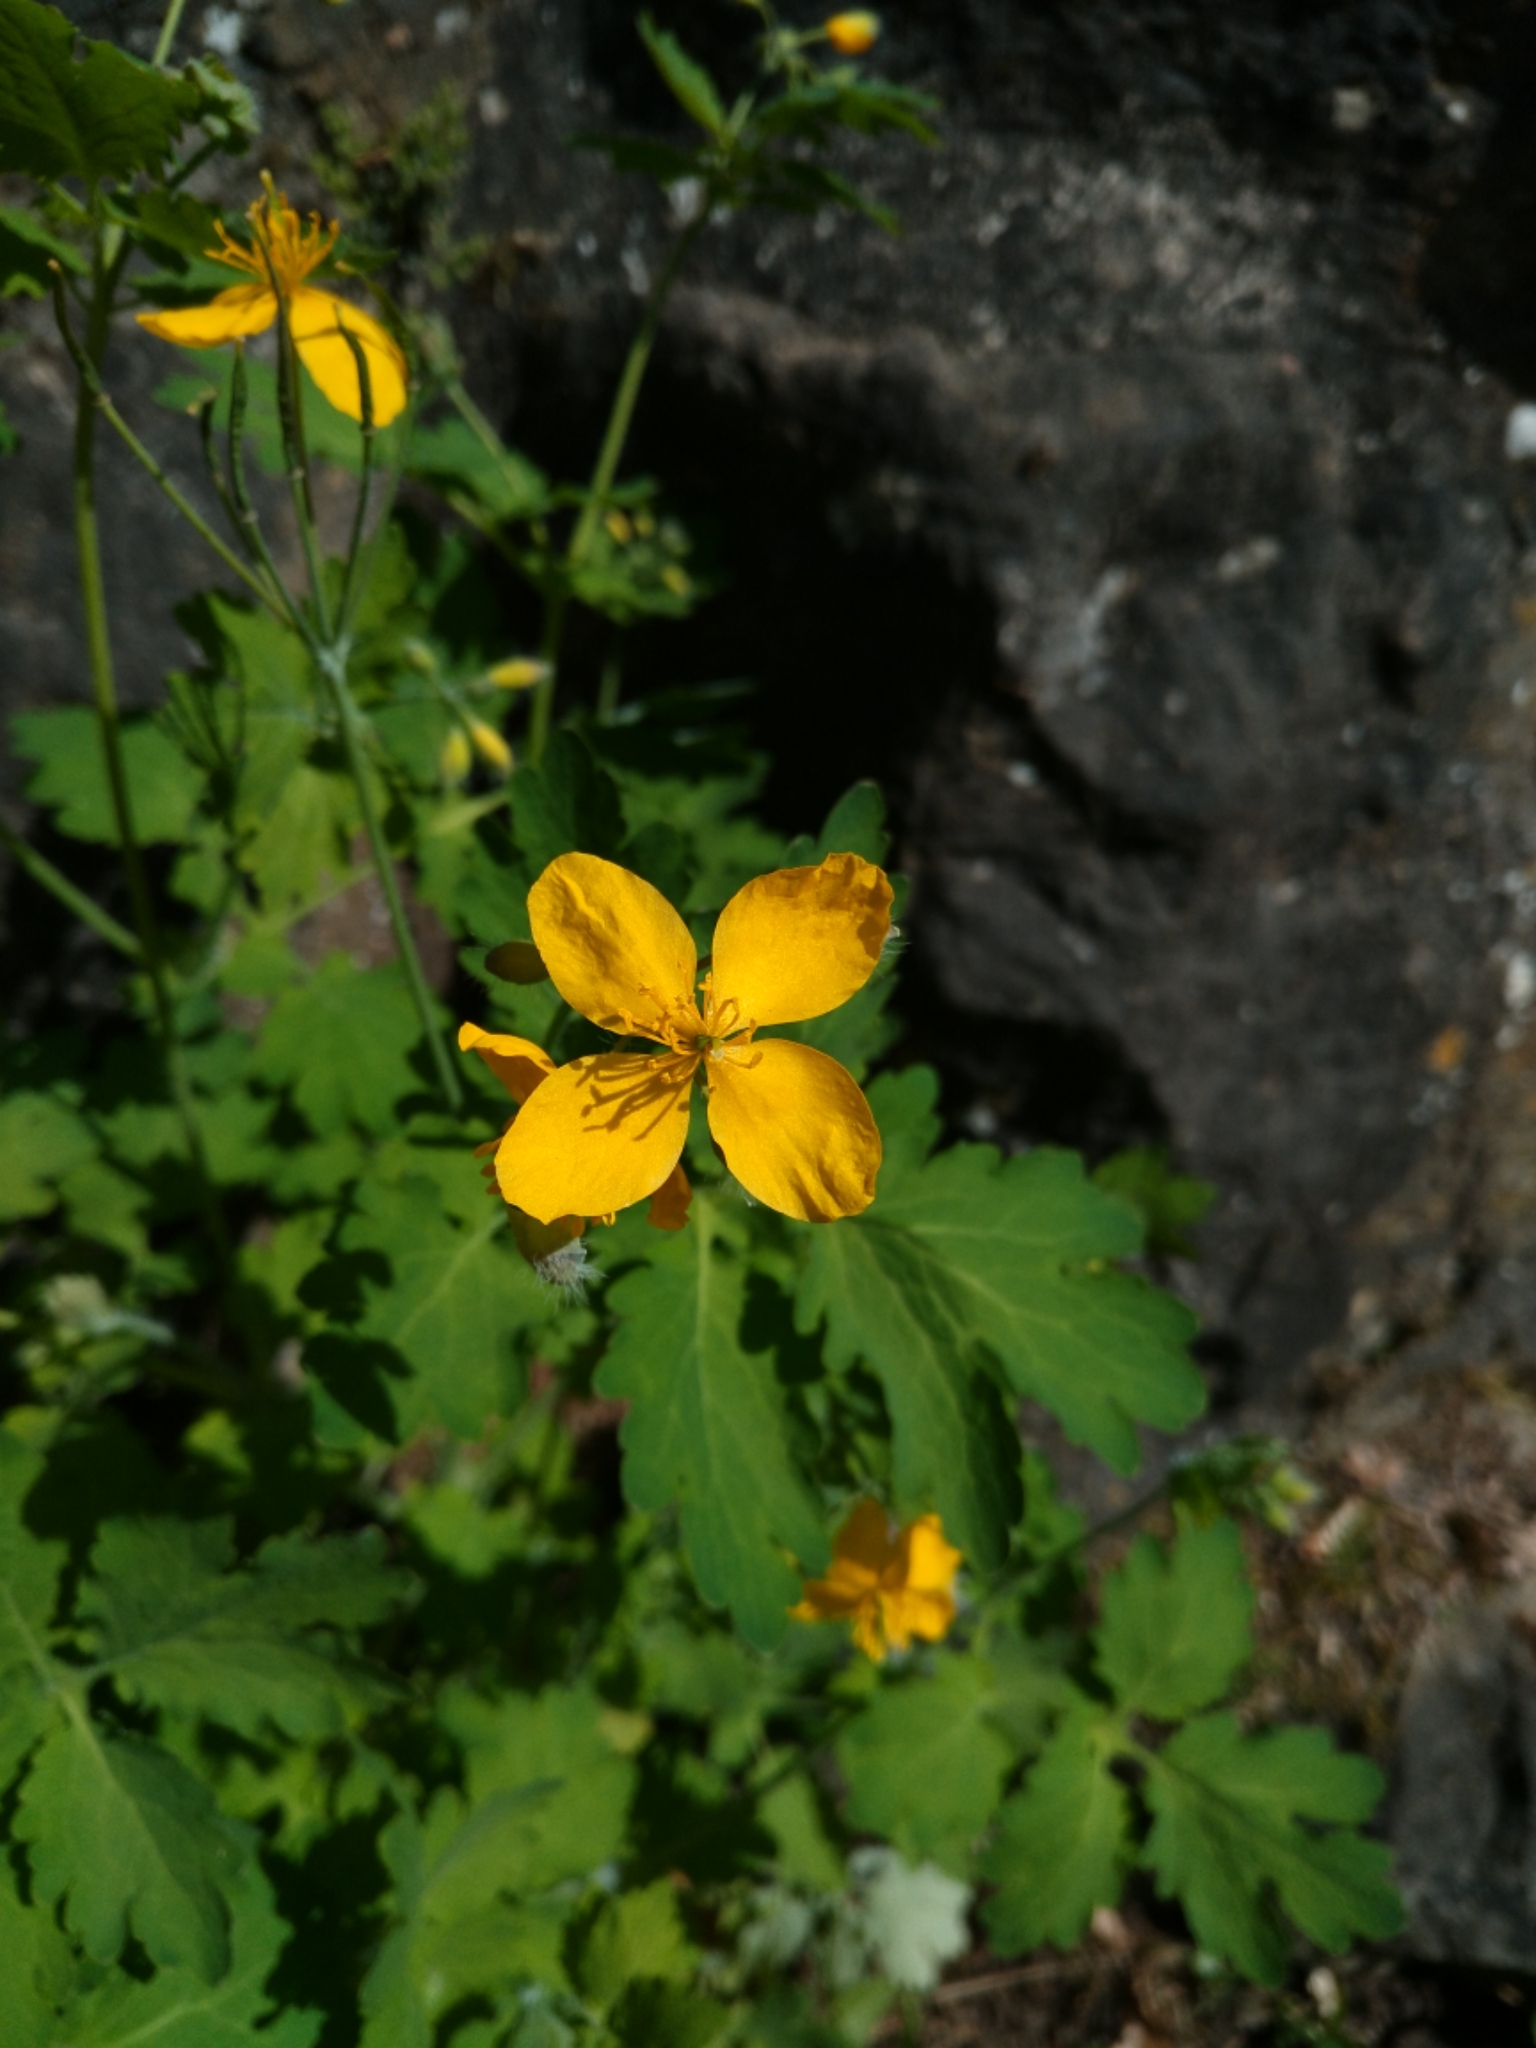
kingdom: Plantae
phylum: Tracheophyta
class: Magnoliopsida
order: Ranunculales
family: Papaveraceae
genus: Chelidonium
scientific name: Chelidonium majus
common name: Greater celandine
